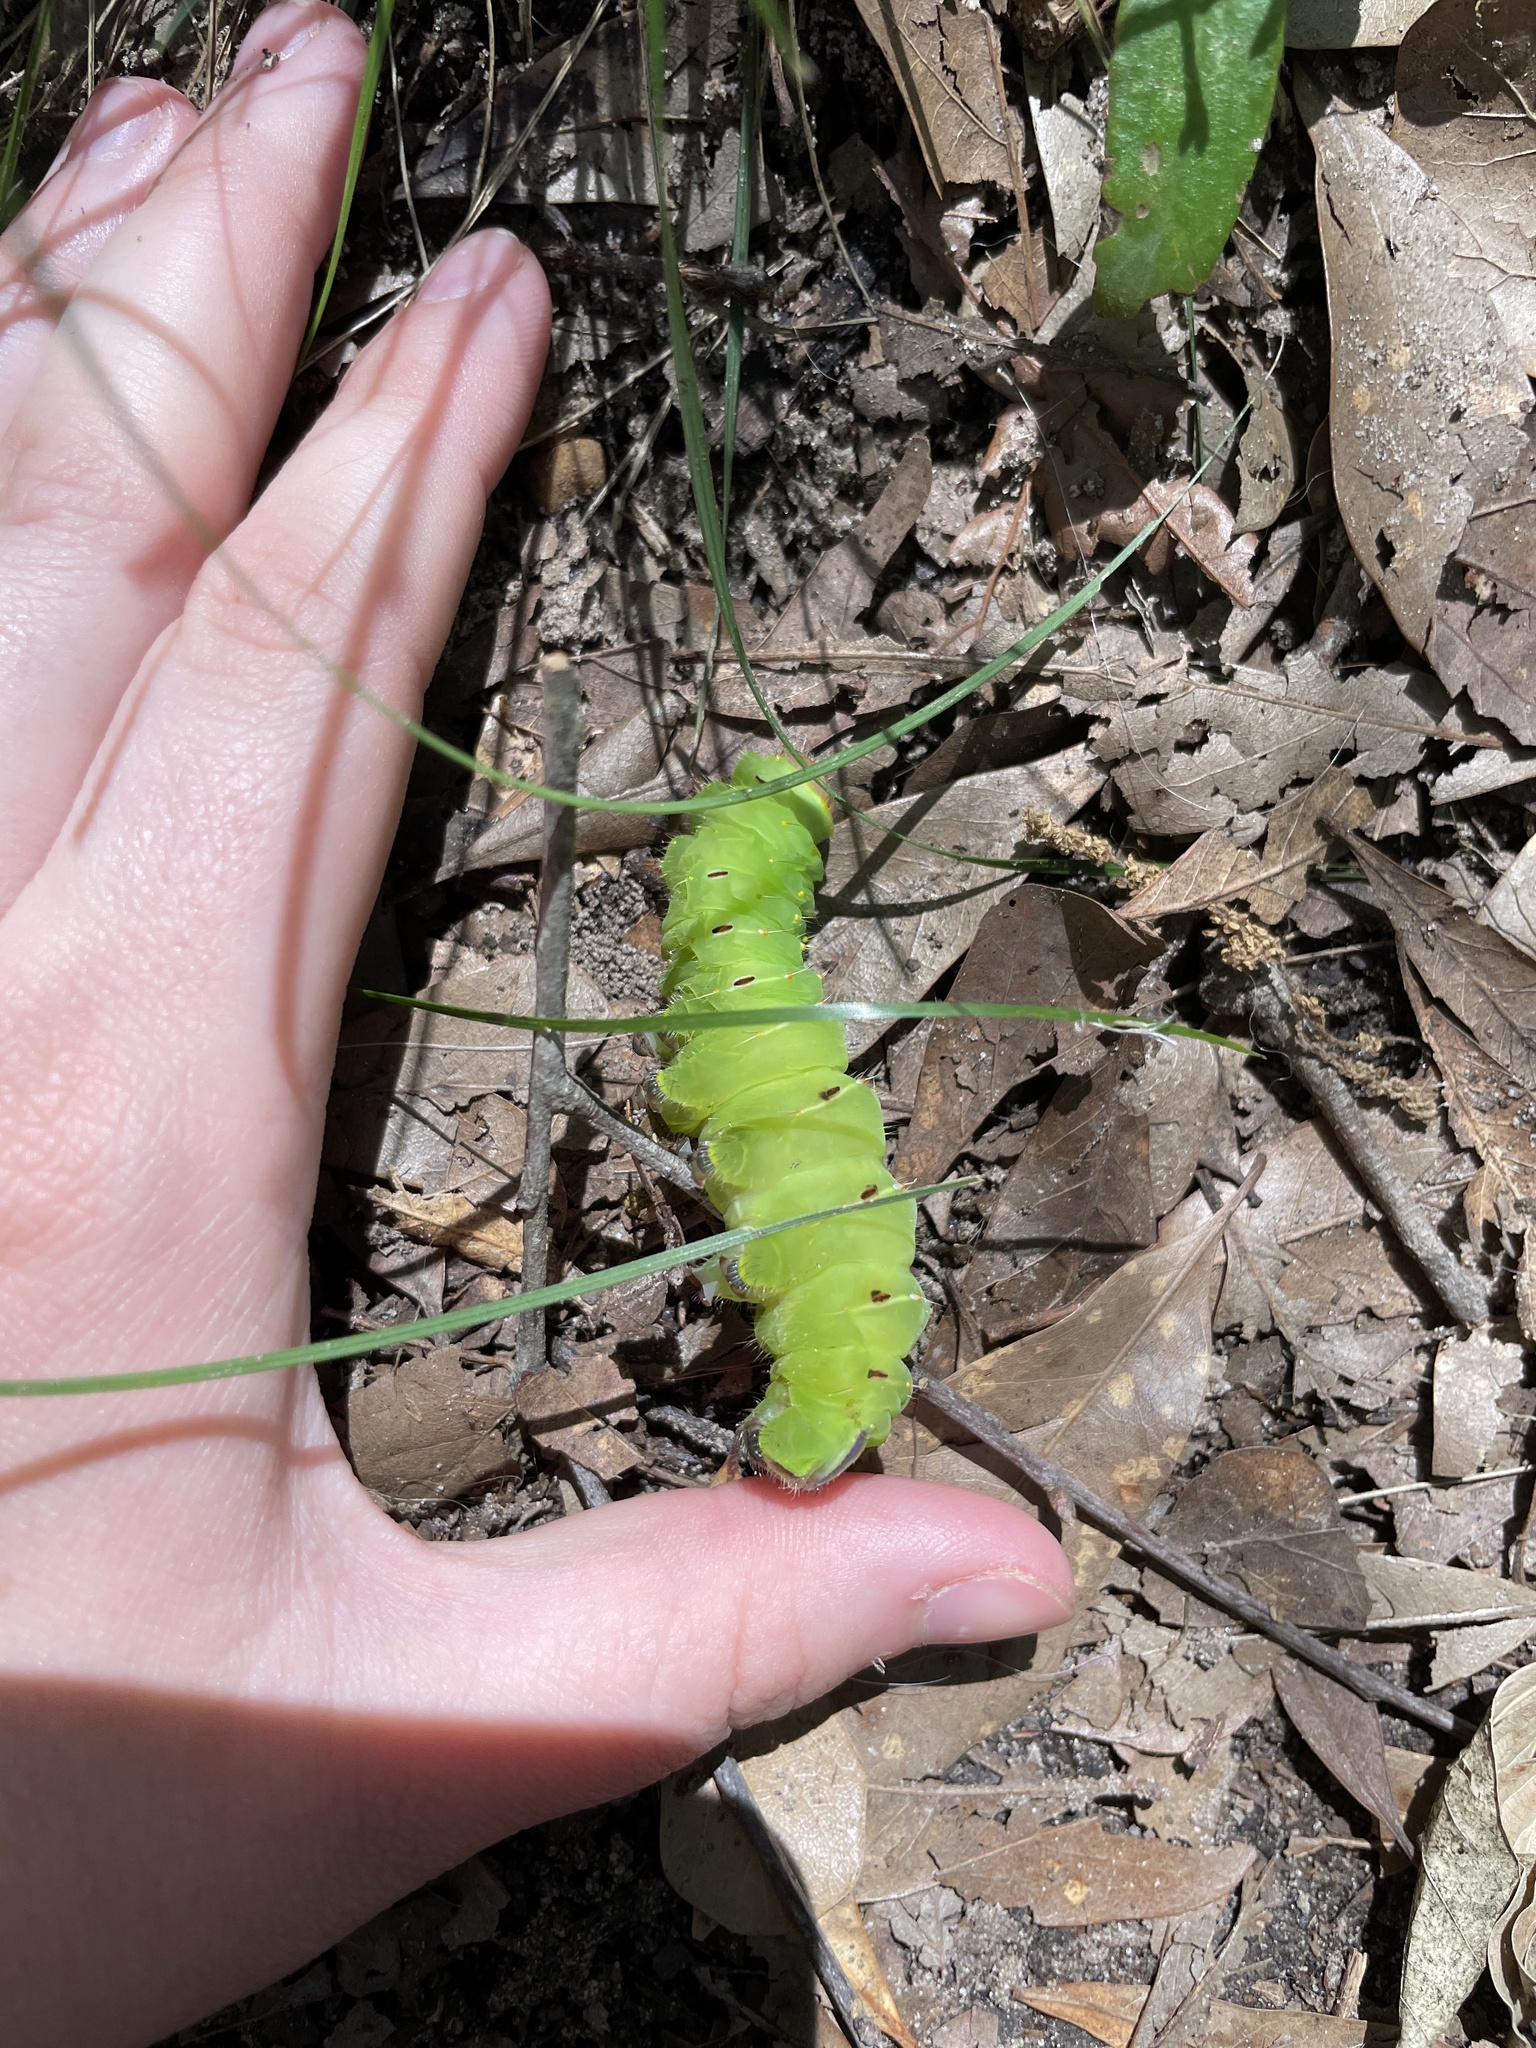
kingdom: Animalia
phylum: Arthropoda
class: Insecta
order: Lepidoptera
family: Saturniidae
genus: Antheraea
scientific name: Antheraea polyphemus
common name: Polyphemus moth
